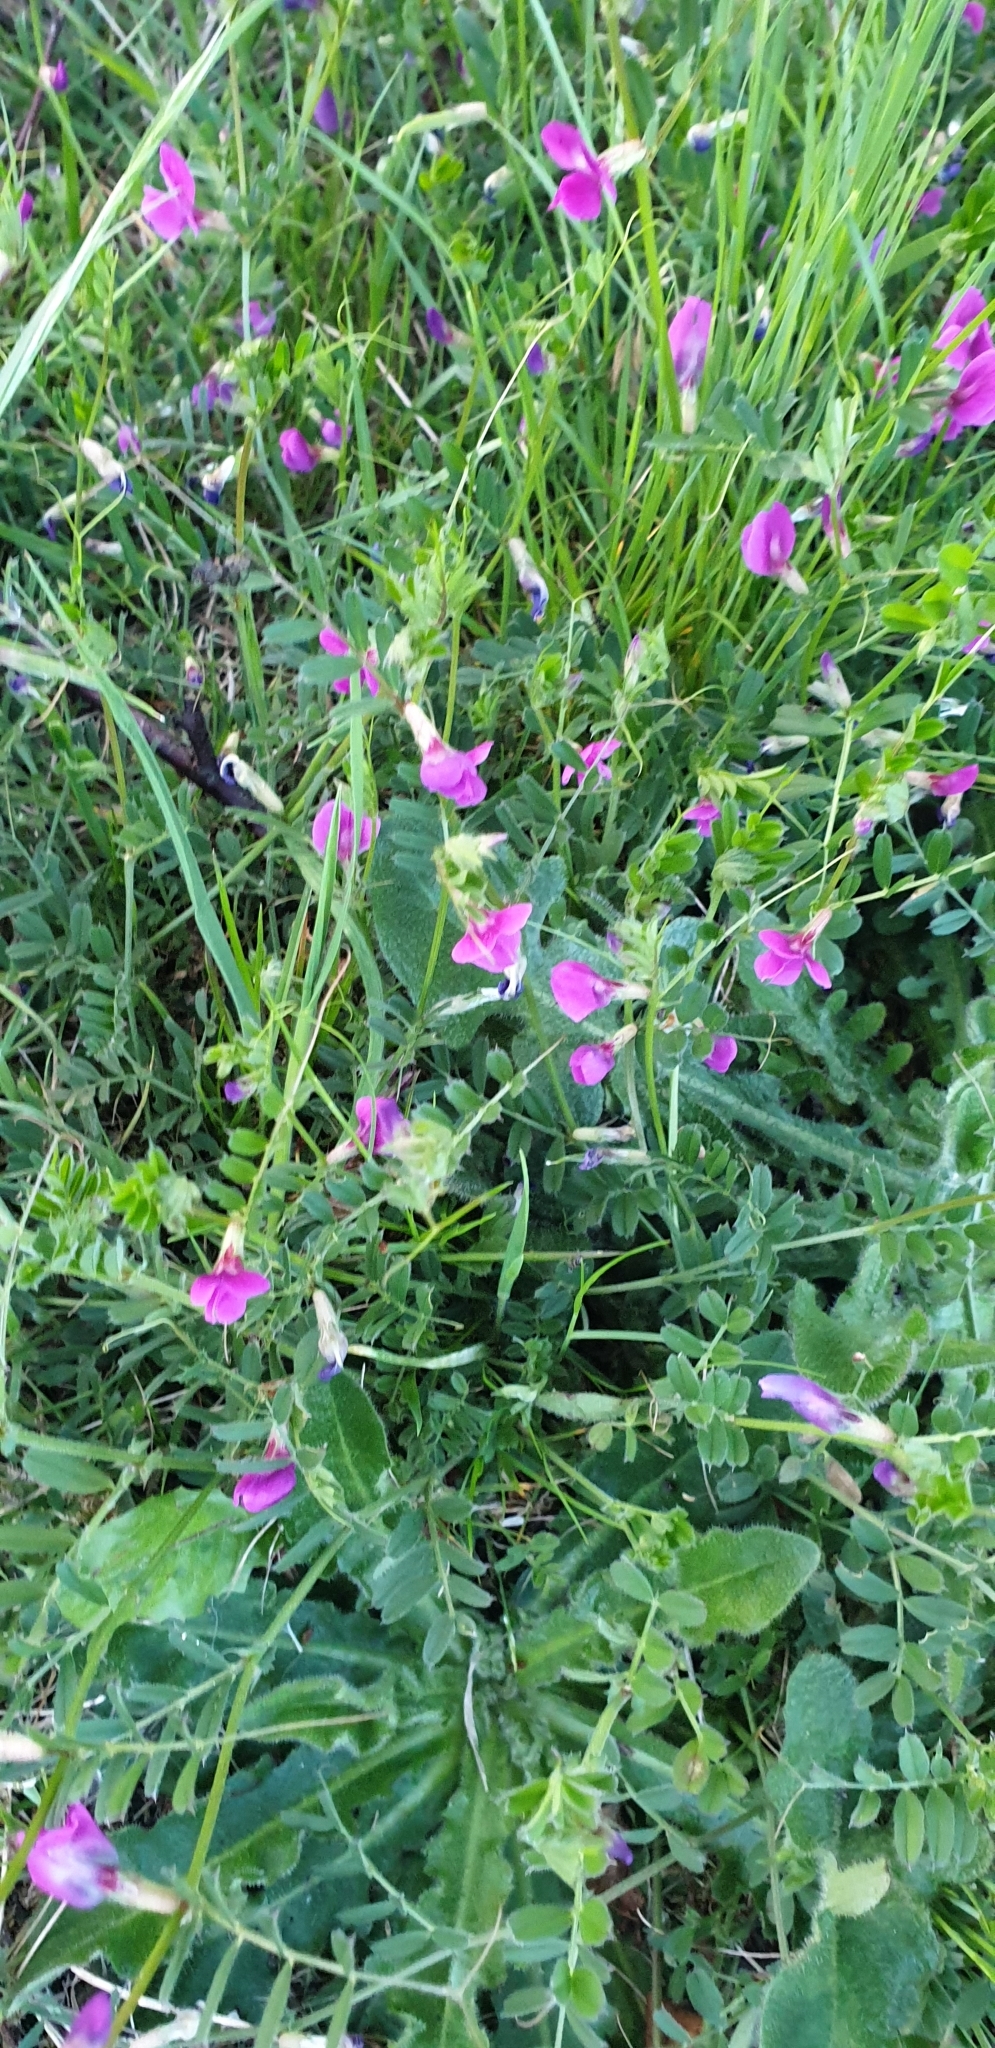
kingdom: Plantae
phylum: Tracheophyta
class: Magnoliopsida
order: Fabales
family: Fabaceae
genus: Vicia
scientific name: Vicia sativa
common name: Garden vetch
